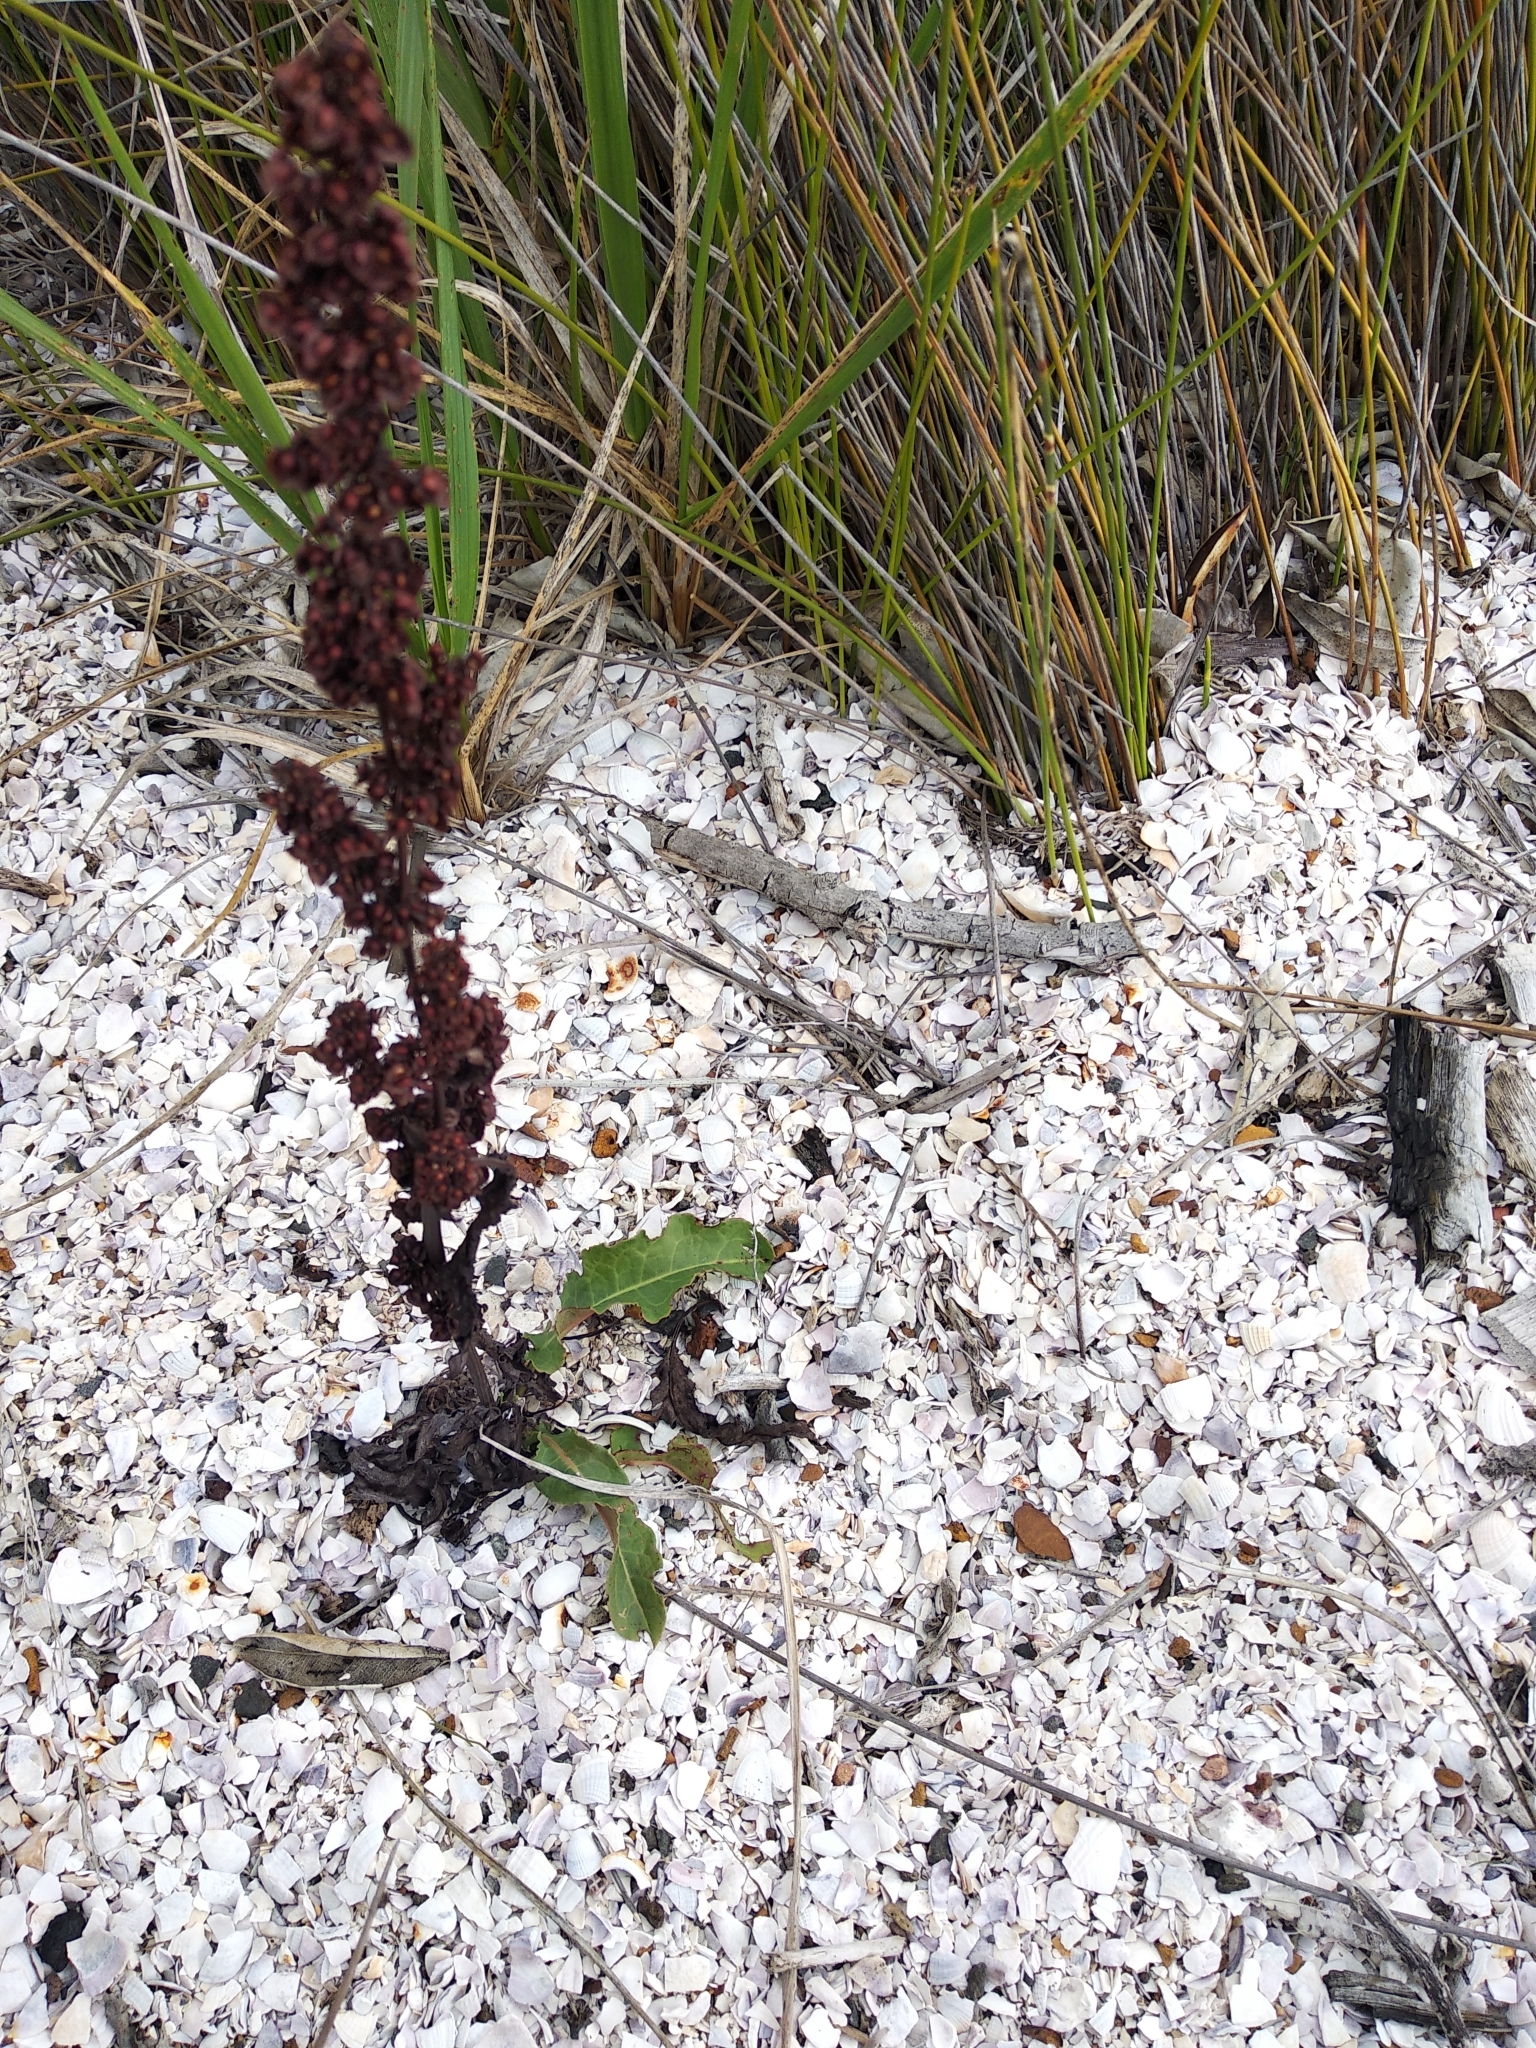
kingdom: Plantae
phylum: Tracheophyta
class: Magnoliopsida
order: Caryophyllales
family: Polygonaceae
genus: Rumex
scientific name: Rumex crispus
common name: Curled dock
